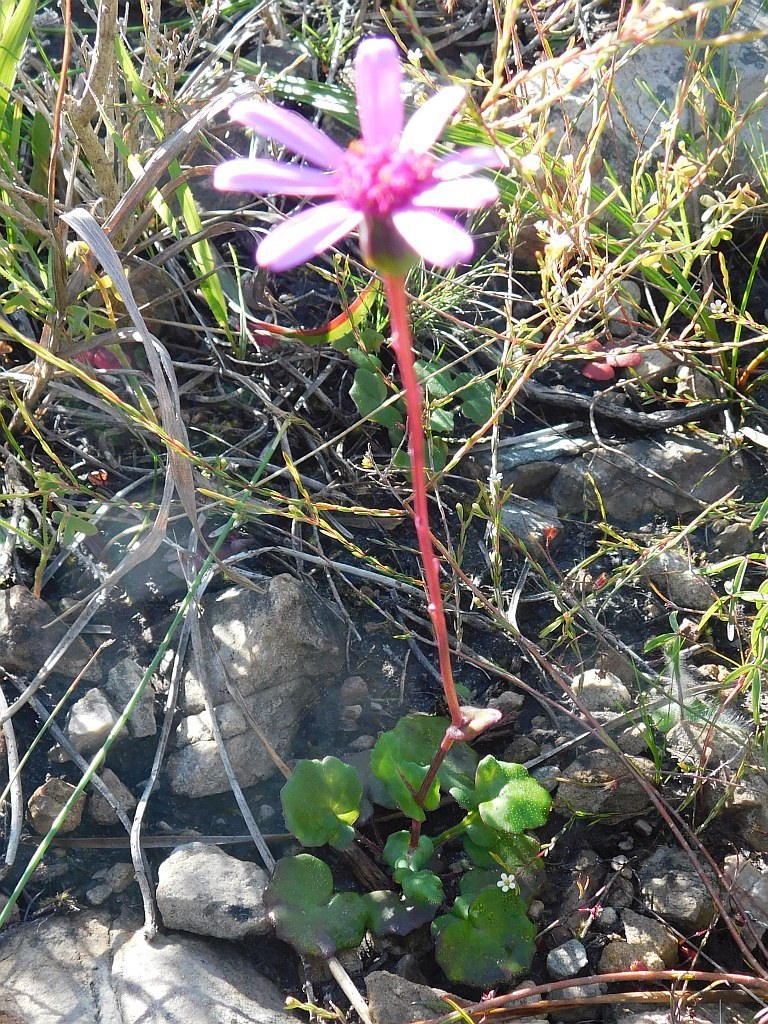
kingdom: Plantae
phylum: Tracheophyta
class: Magnoliopsida
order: Asterales
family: Asteraceae
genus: Senecio
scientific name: Senecio cymbalariifolius
